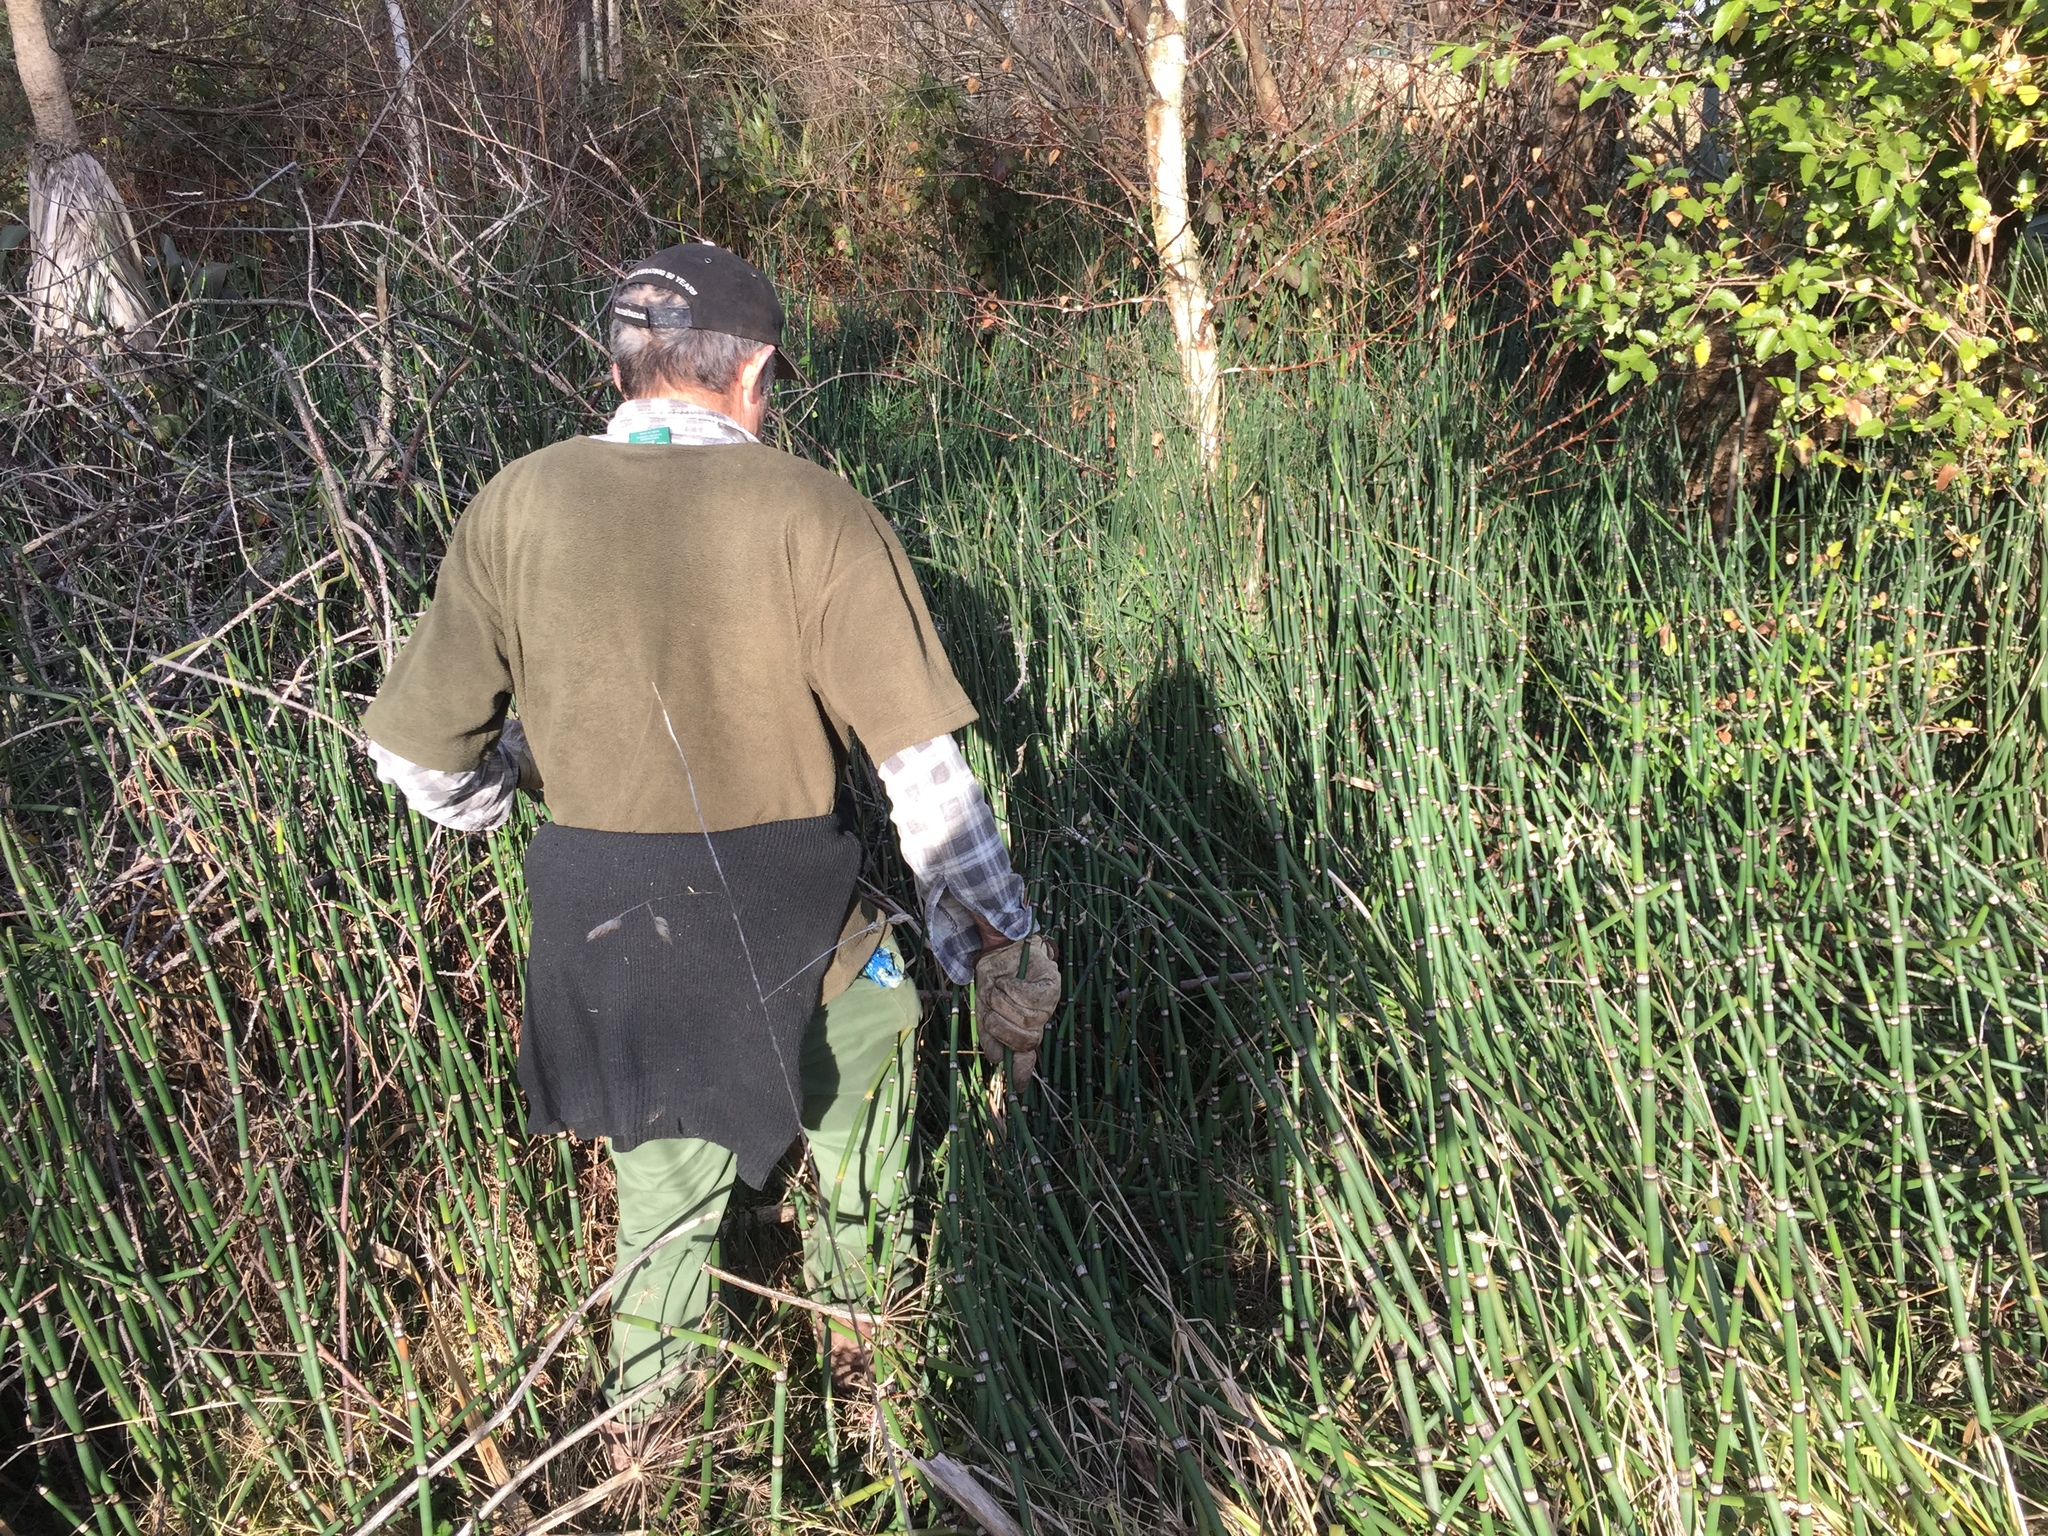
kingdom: Plantae
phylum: Tracheophyta
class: Polypodiopsida
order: Equisetales
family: Equisetaceae
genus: Equisetum
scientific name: Equisetum hyemale
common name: Rough horsetail
